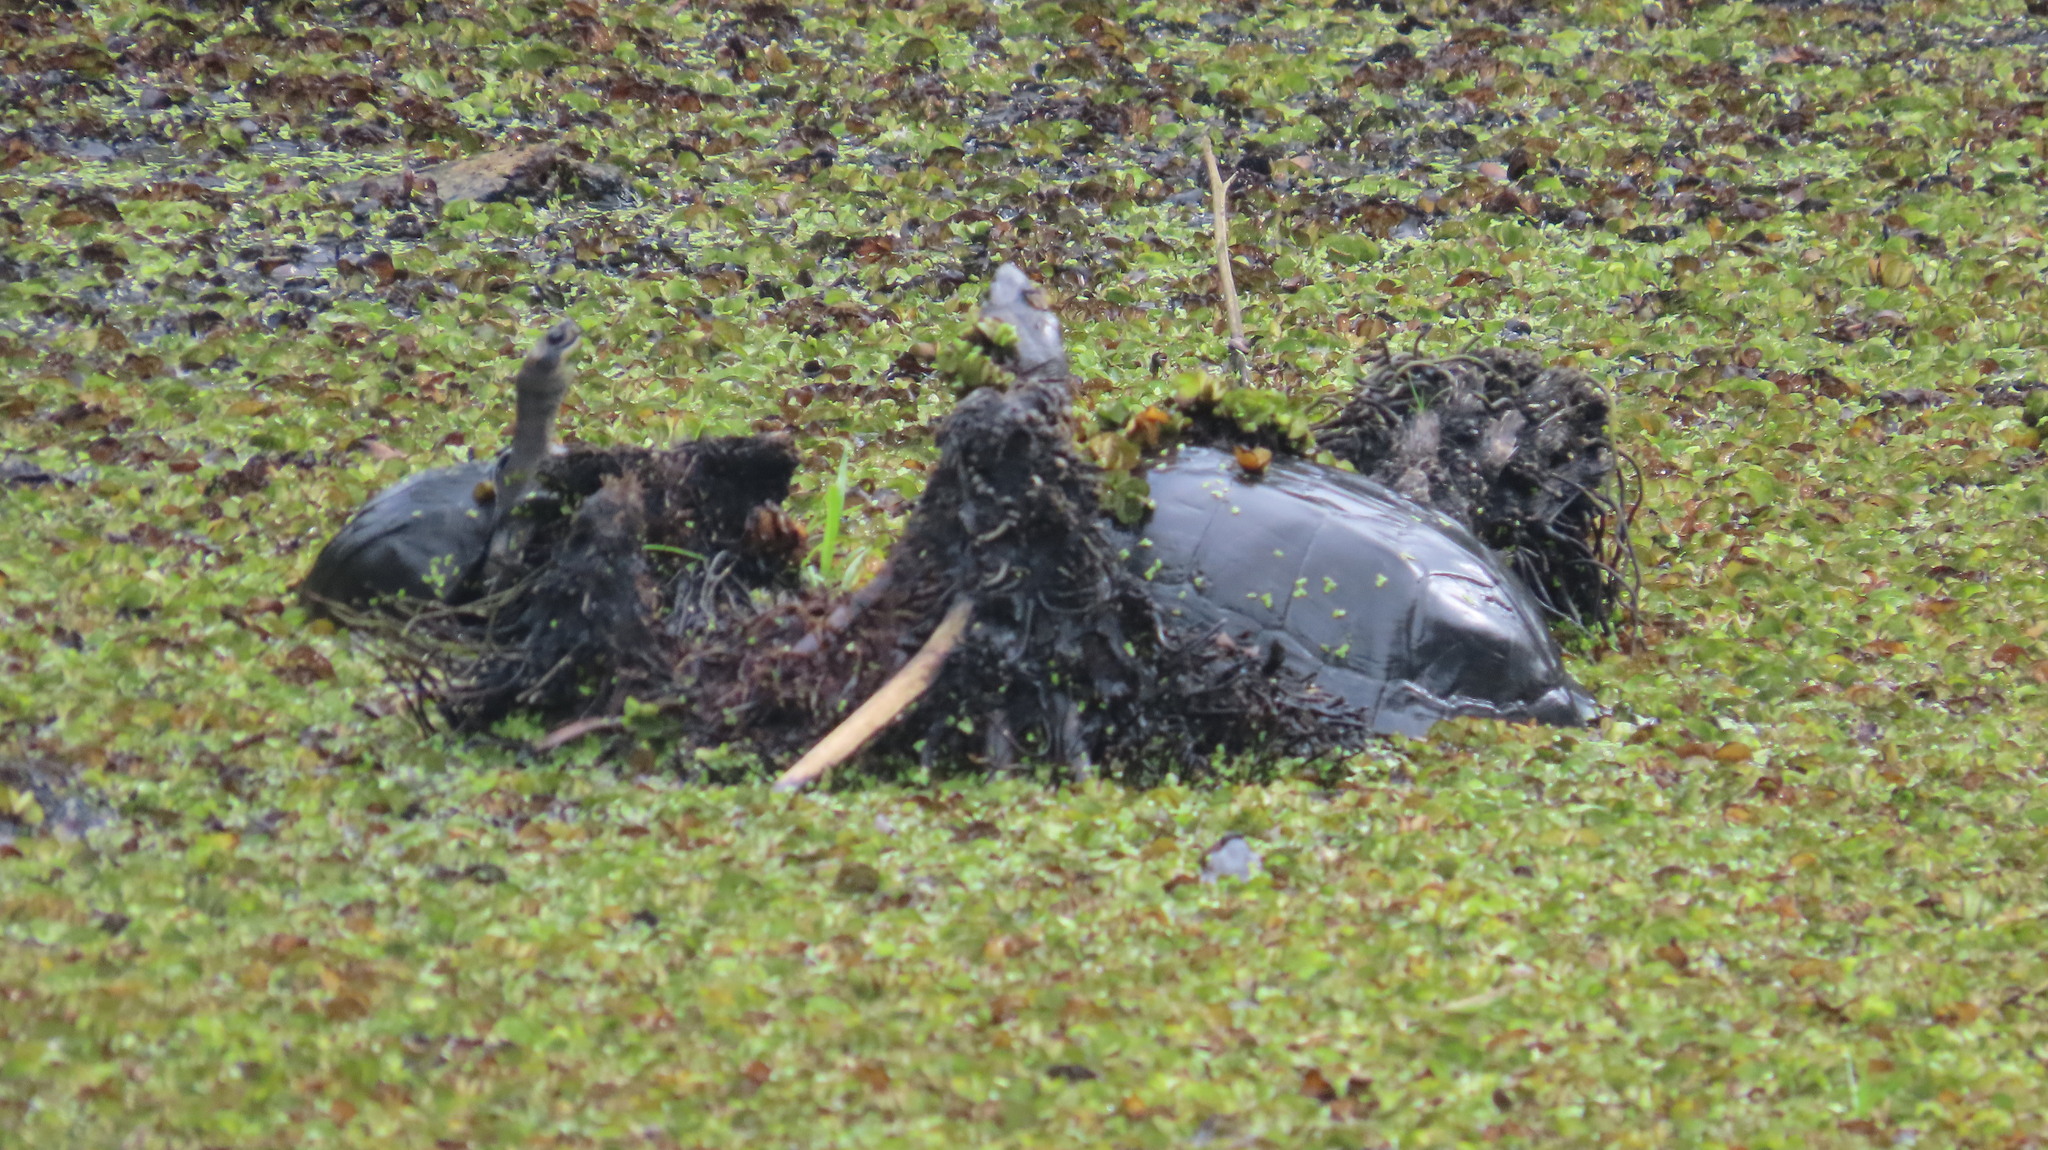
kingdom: Animalia
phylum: Chordata
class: Testudines
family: Geoemydidae
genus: Melanochelys
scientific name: Melanochelys trijuga
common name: Indian black turtle
